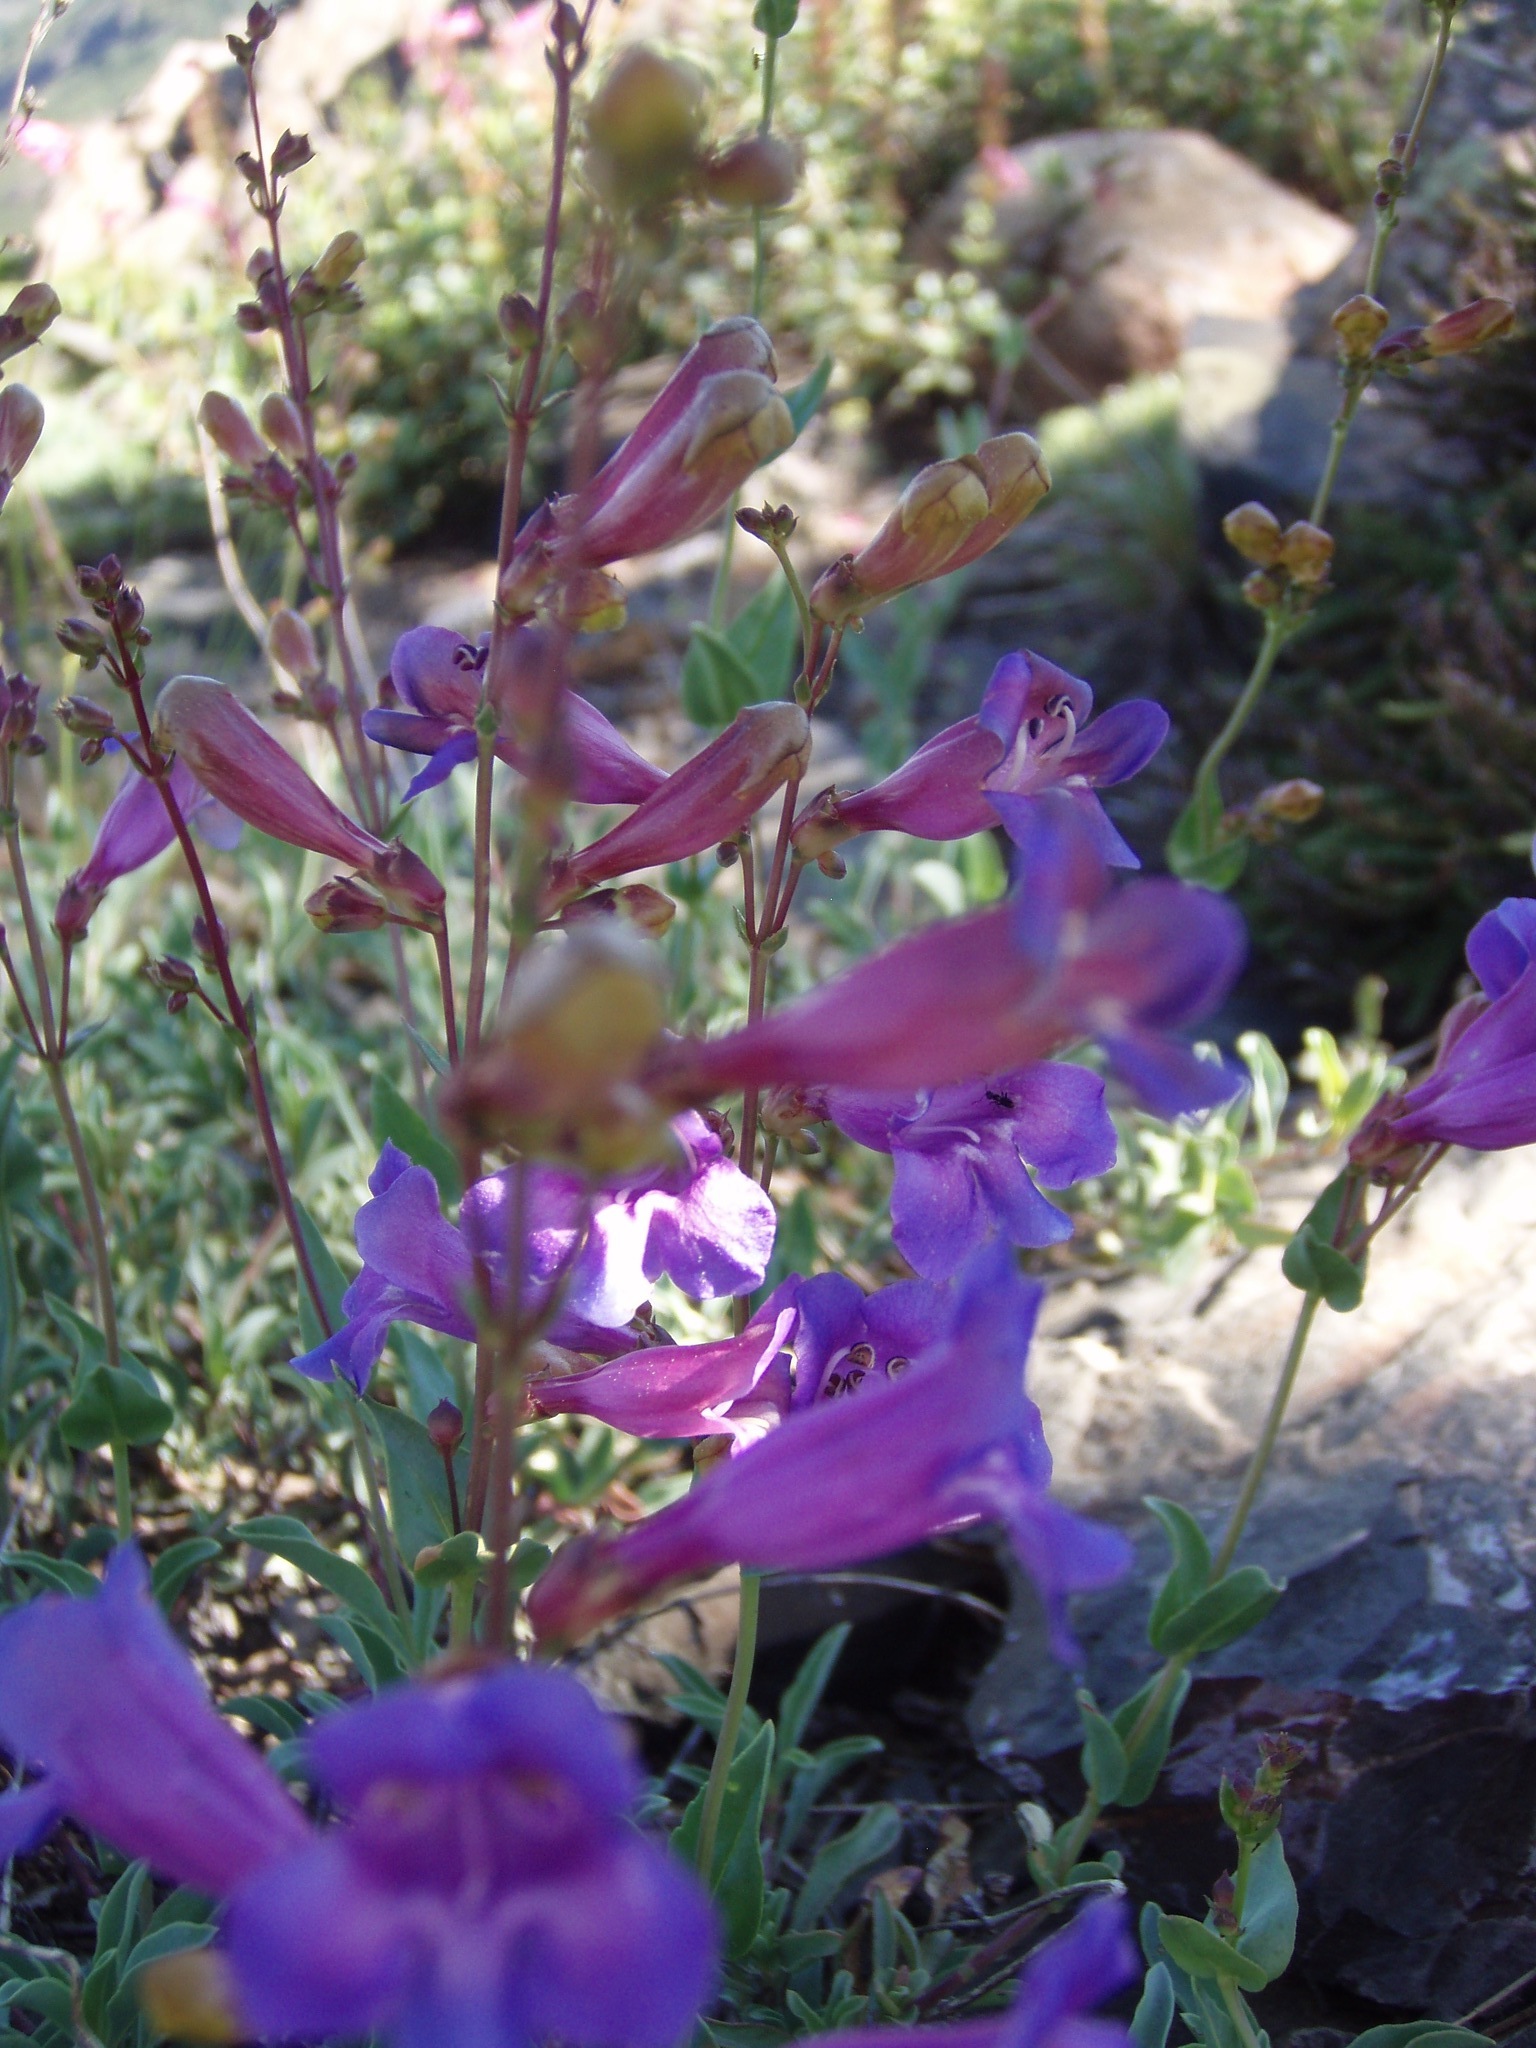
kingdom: Plantae
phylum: Tracheophyta
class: Magnoliopsida
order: Lamiales
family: Plantaginaceae
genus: Penstemon
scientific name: Penstemon azureus
